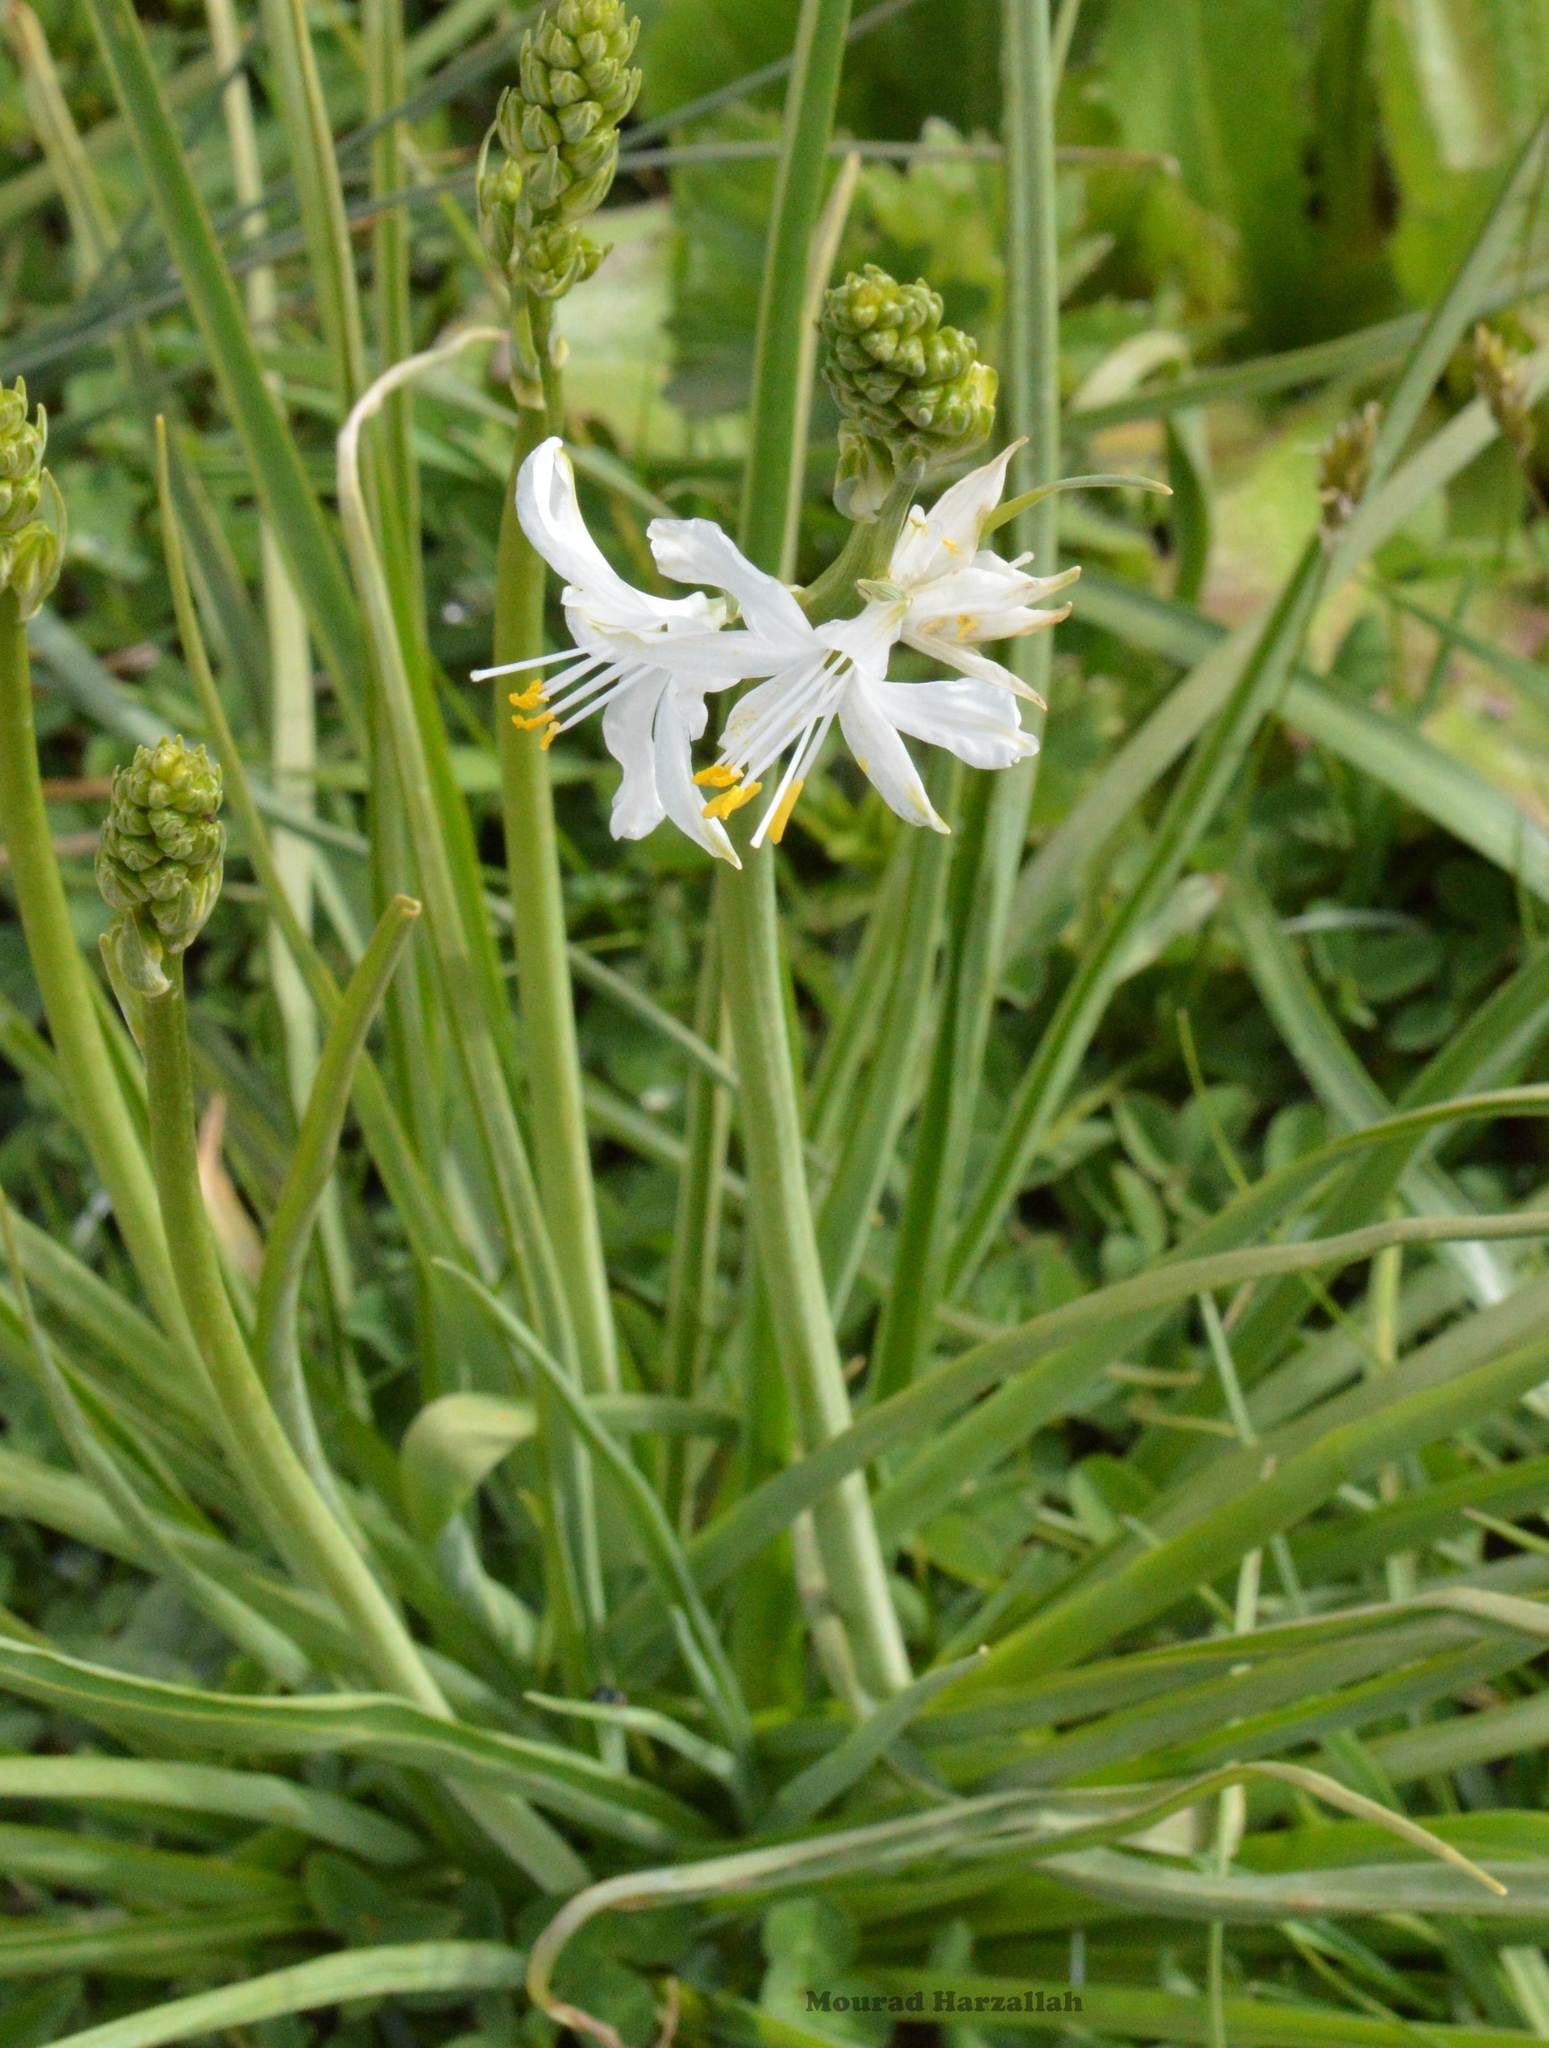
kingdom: Plantae
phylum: Tracheophyta
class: Liliopsida
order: Asparagales
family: Asparagaceae
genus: Anthericum
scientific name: Anthericum baeticum
